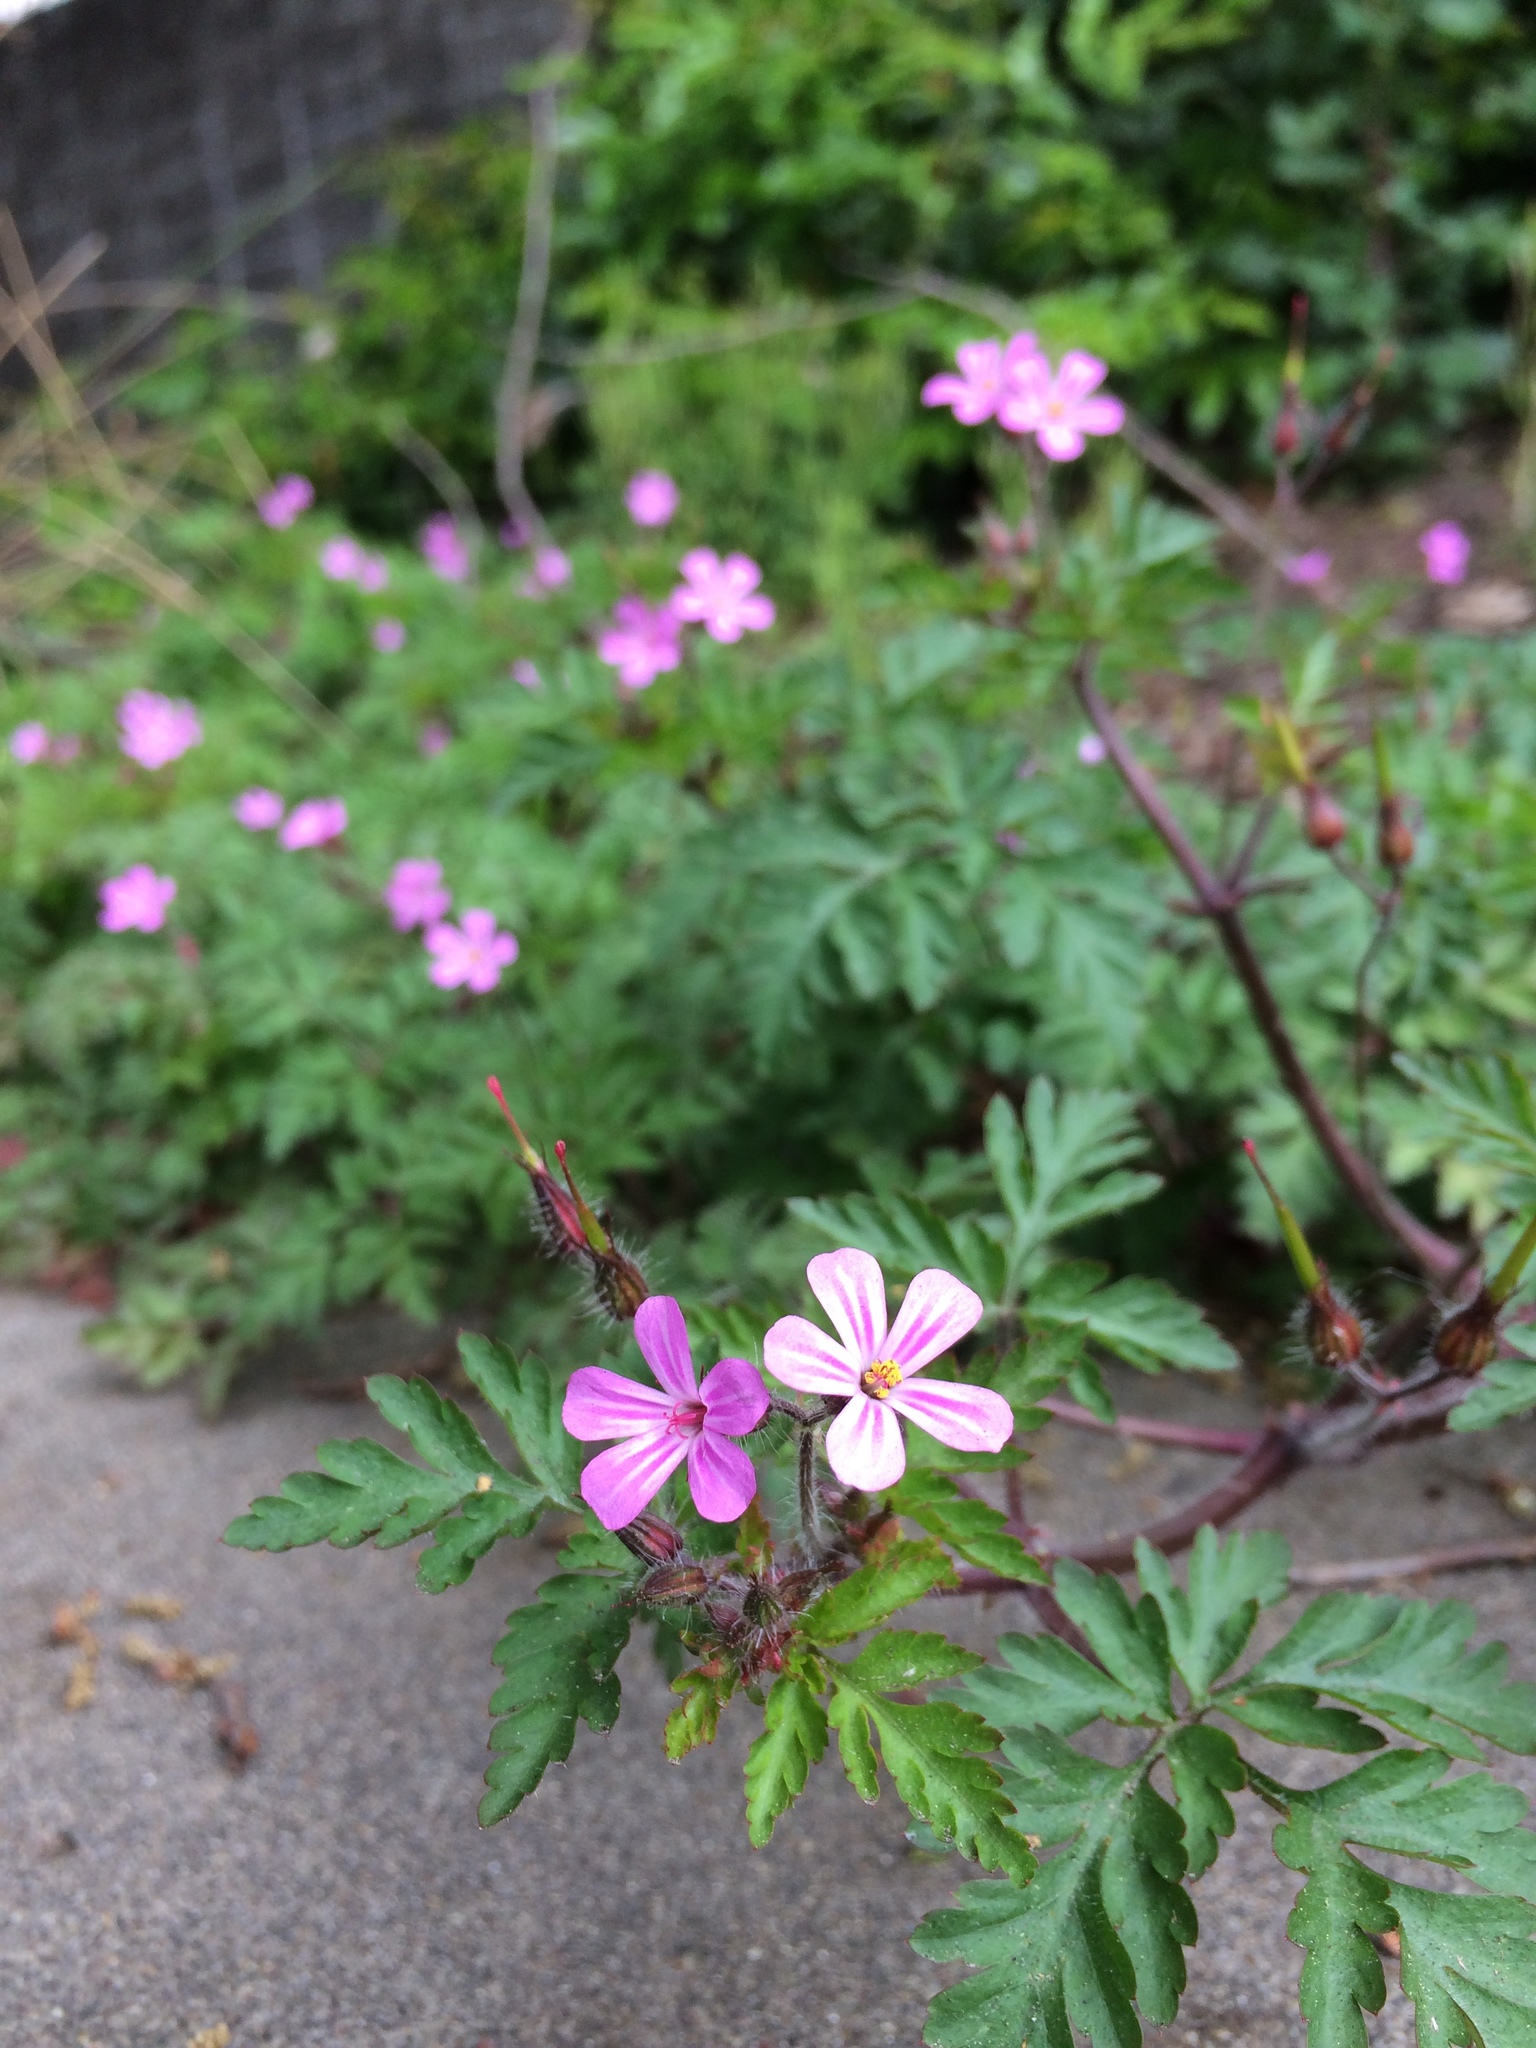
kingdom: Plantae
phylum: Tracheophyta
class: Magnoliopsida
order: Geraniales
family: Geraniaceae
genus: Geranium
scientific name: Geranium robertianum
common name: Herb-robert
